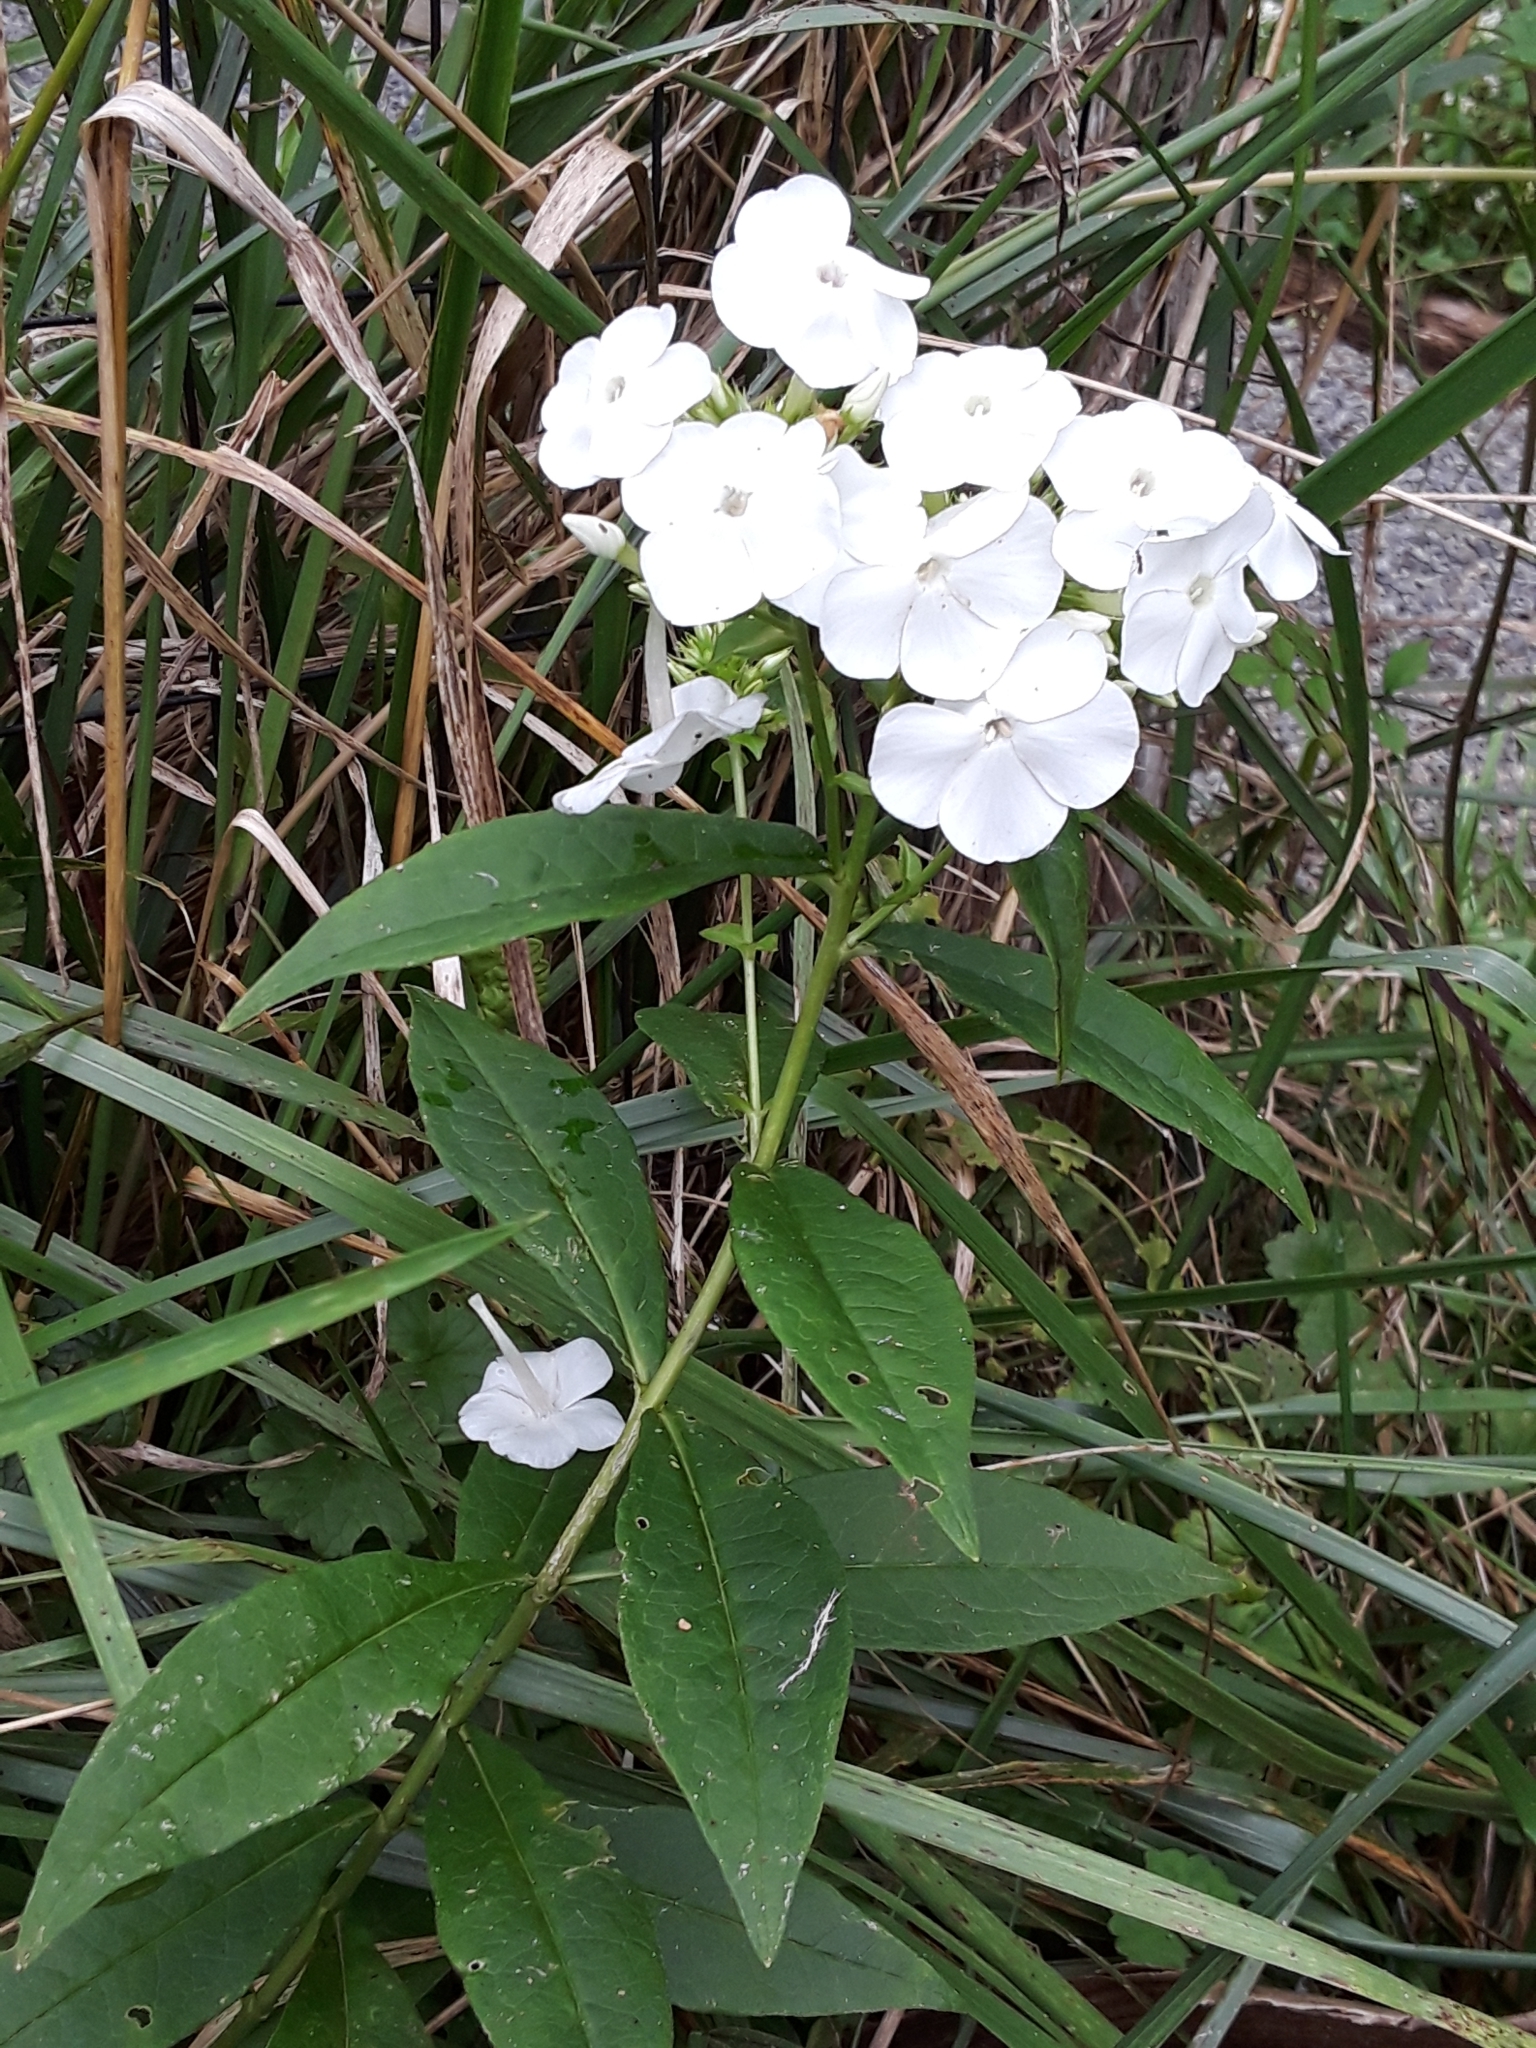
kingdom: Plantae
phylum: Tracheophyta
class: Magnoliopsida
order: Ericales
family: Polemoniaceae
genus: Phlox
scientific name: Phlox paniculata
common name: Fall phlox
